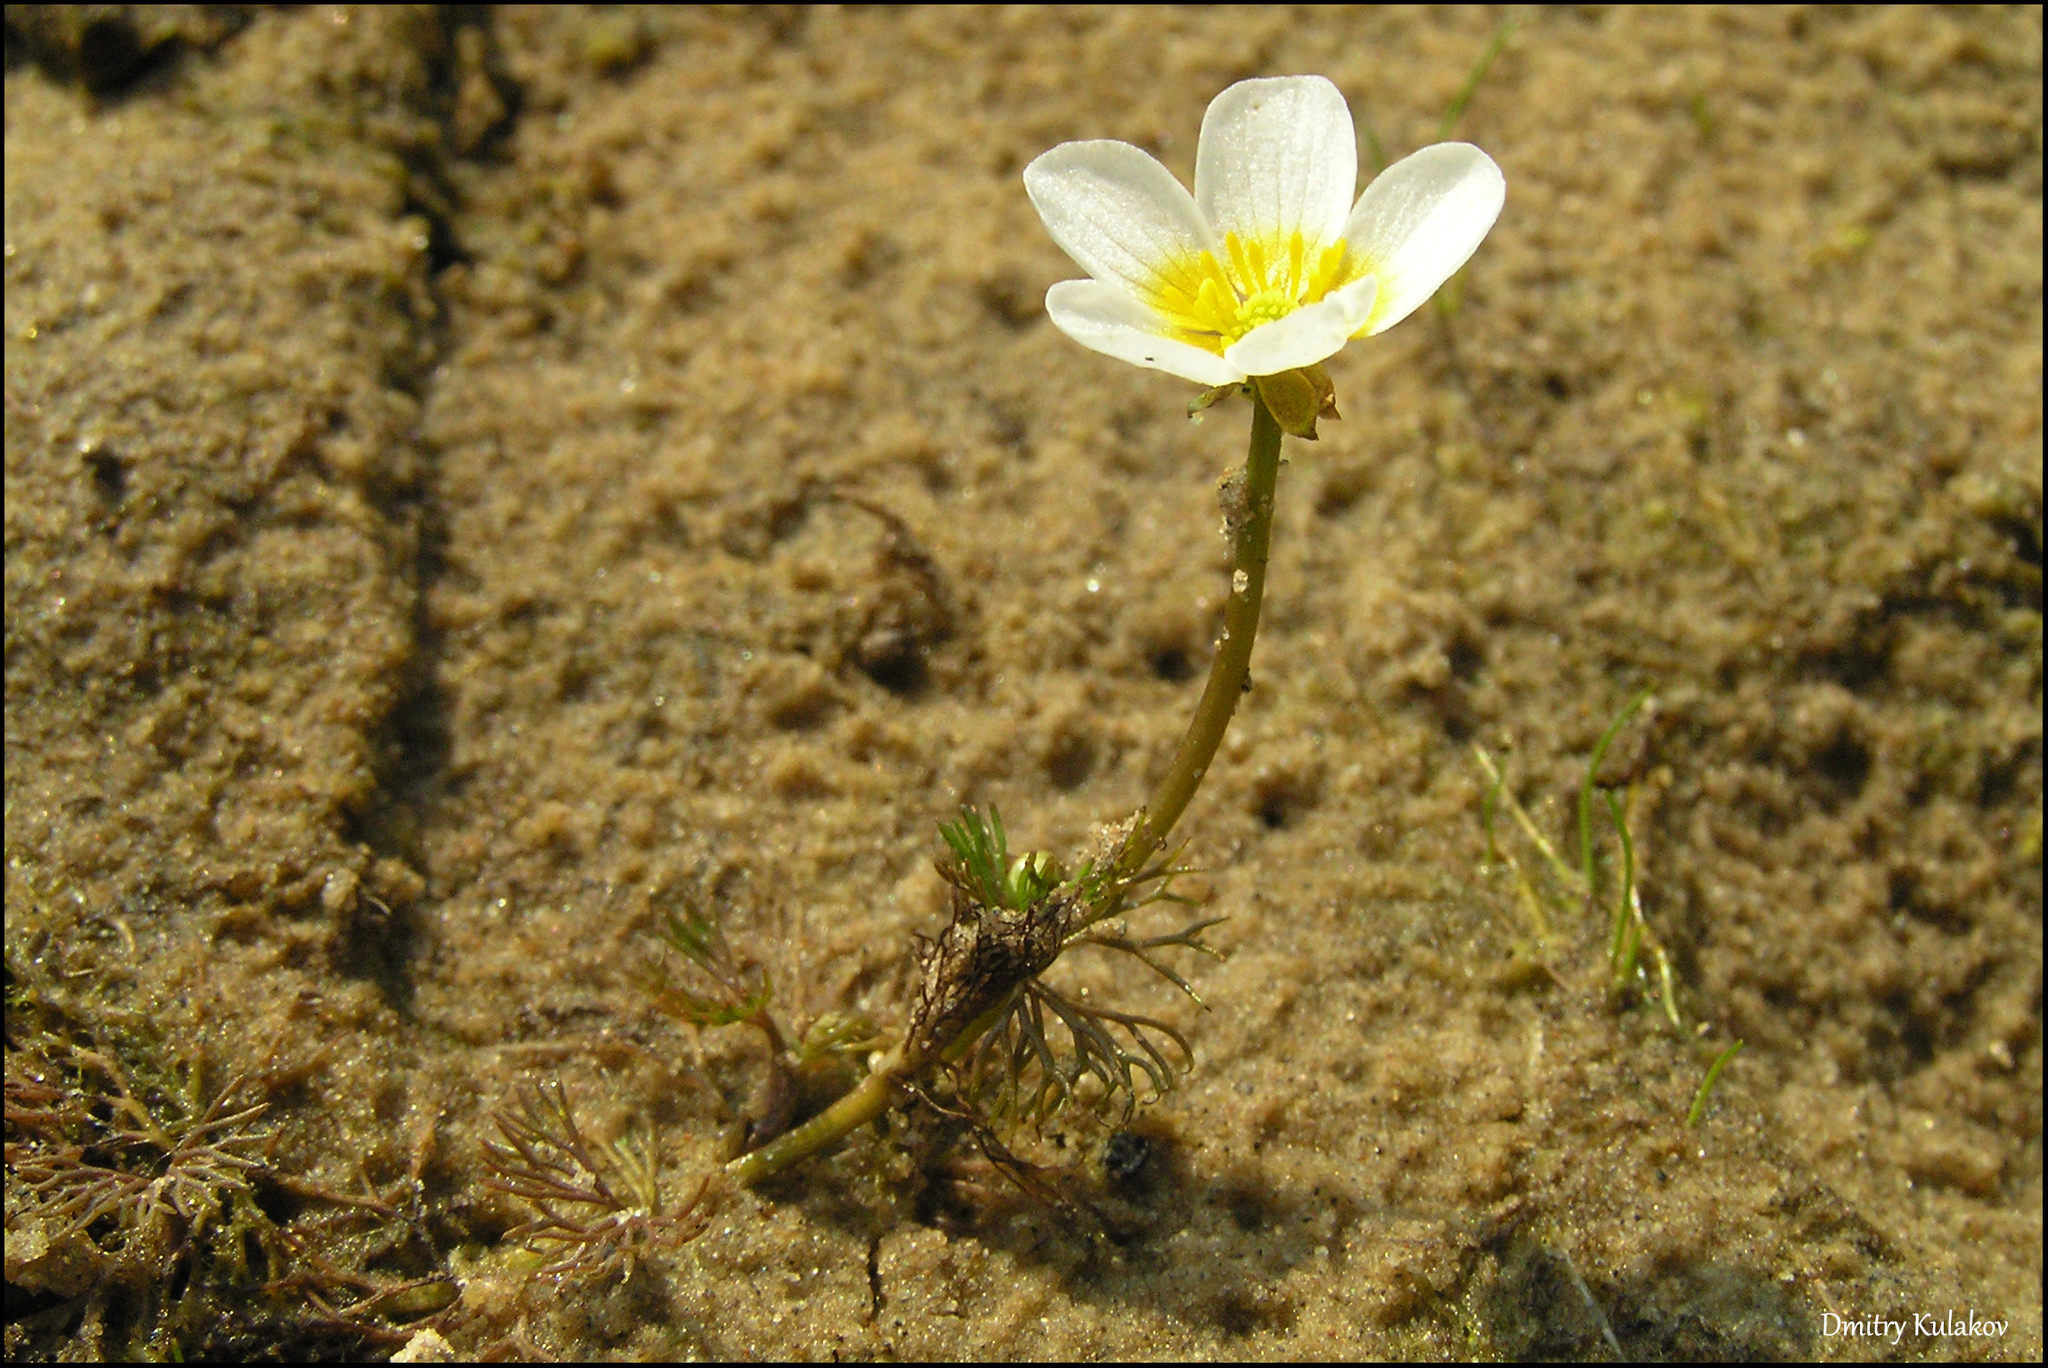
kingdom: Plantae
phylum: Tracheophyta
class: Magnoliopsida
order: Ranunculales
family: Ranunculaceae
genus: Ranunculus
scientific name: Ranunculus aquatilis
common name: Common water-crowfoot
